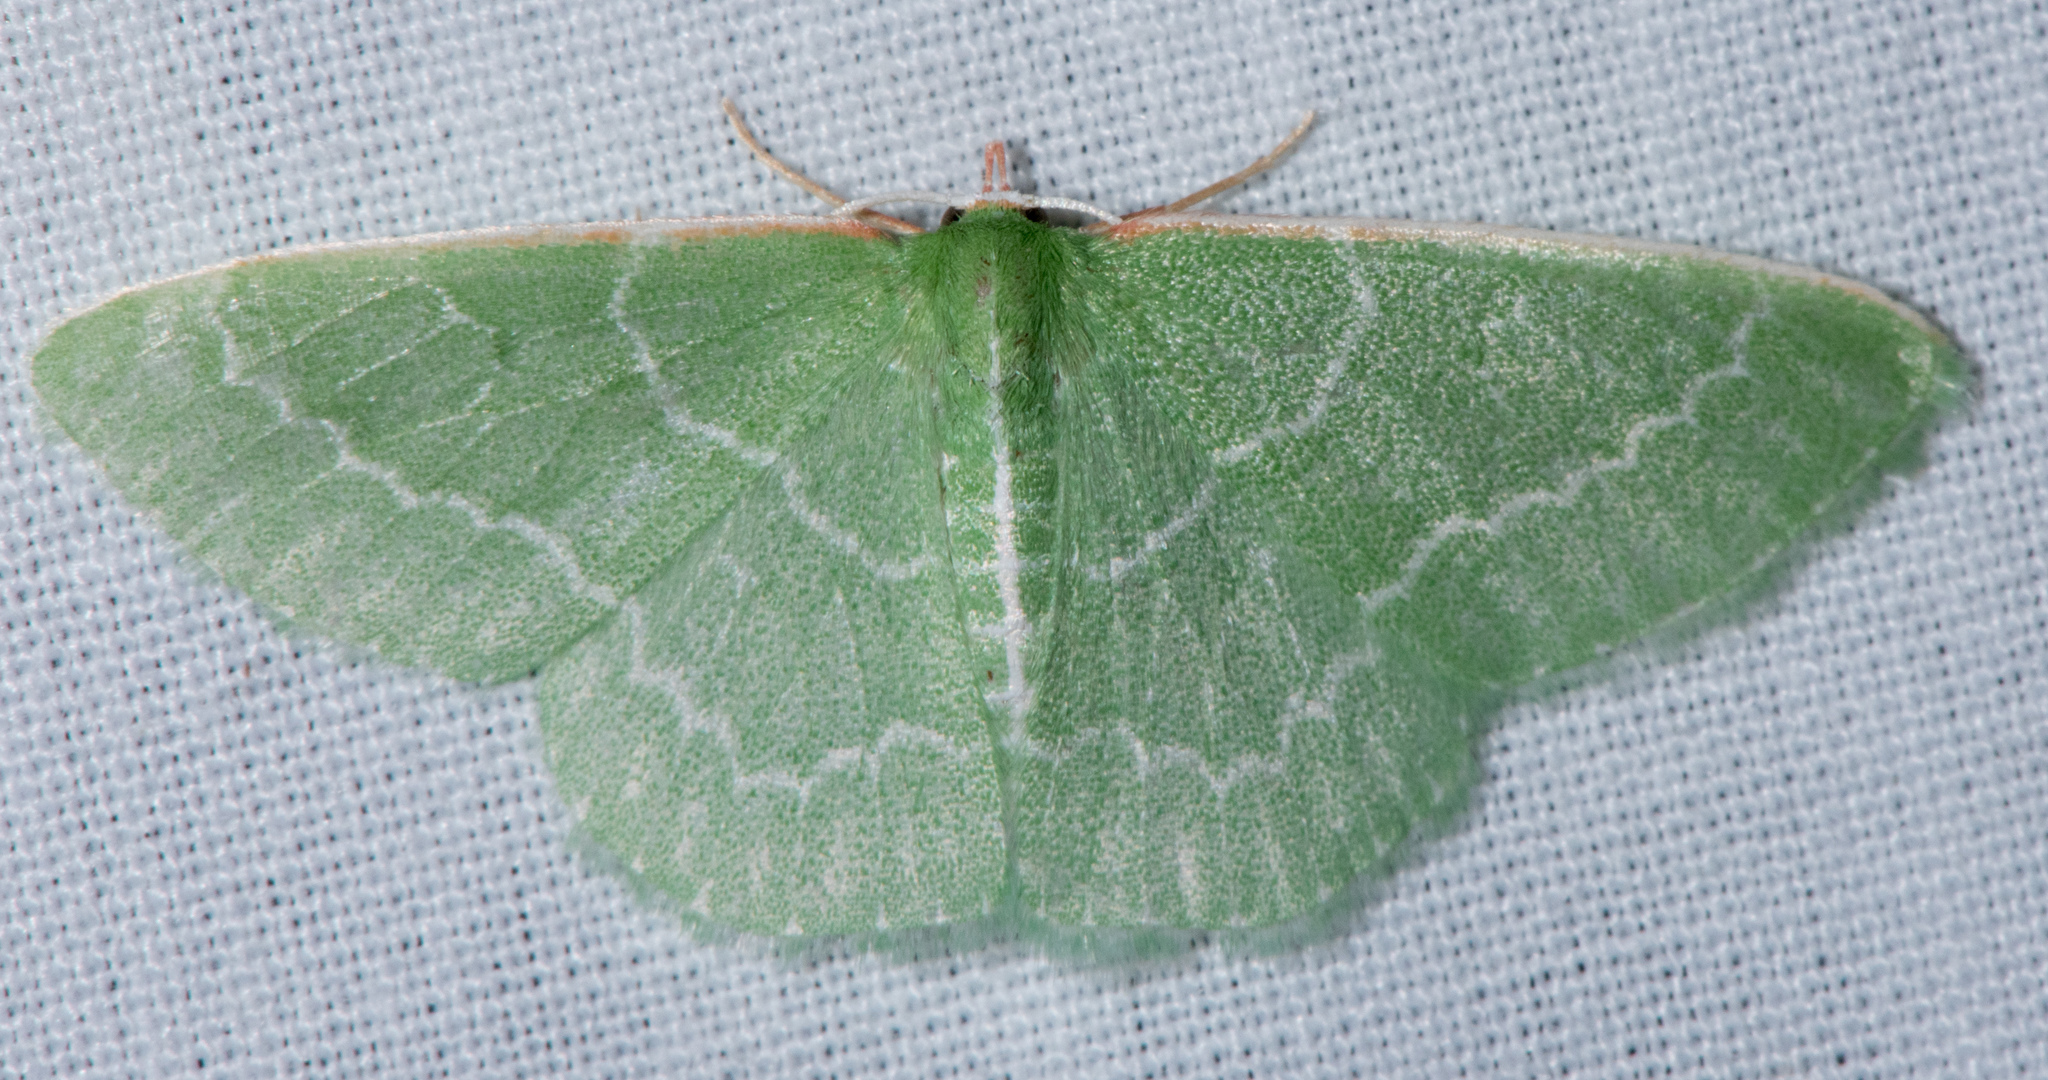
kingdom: Animalia
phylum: Arthropoda
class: Insecta
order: Lepidoptera
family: Geometridae
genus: Synchlora
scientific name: Synchlora aerata
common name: Wavy-lined emerald
